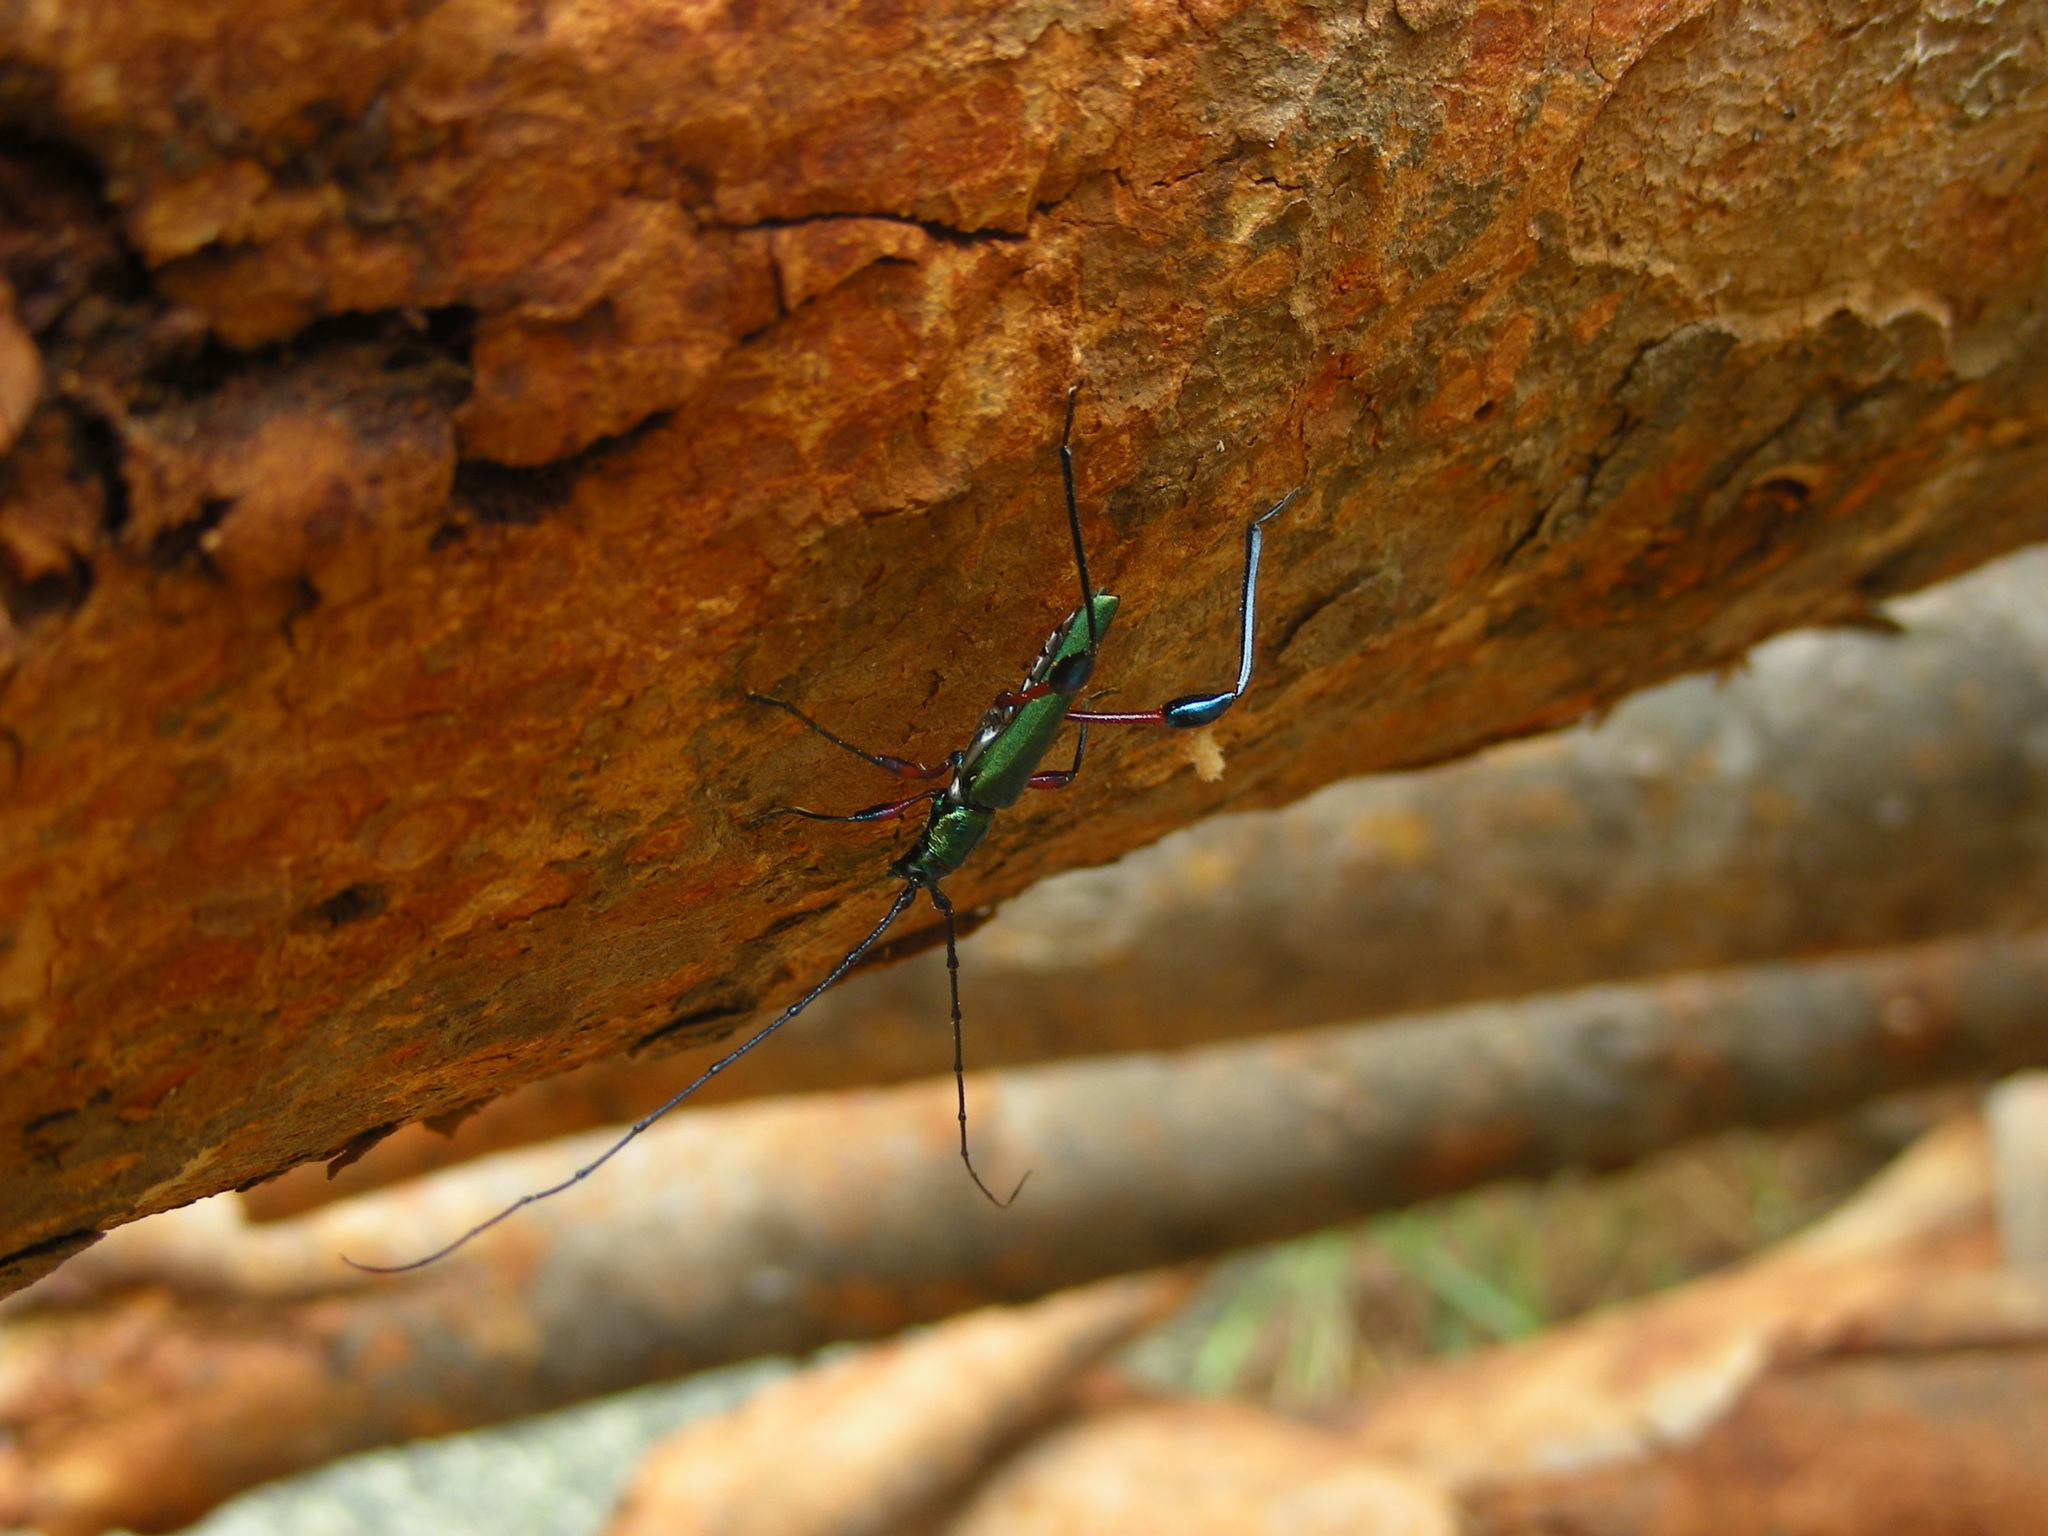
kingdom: Animalia
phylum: Arthropoda
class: Insecta
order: Coleoptera
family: Cerambycidae
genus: Mombasius
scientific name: Mombasius gracilentus
